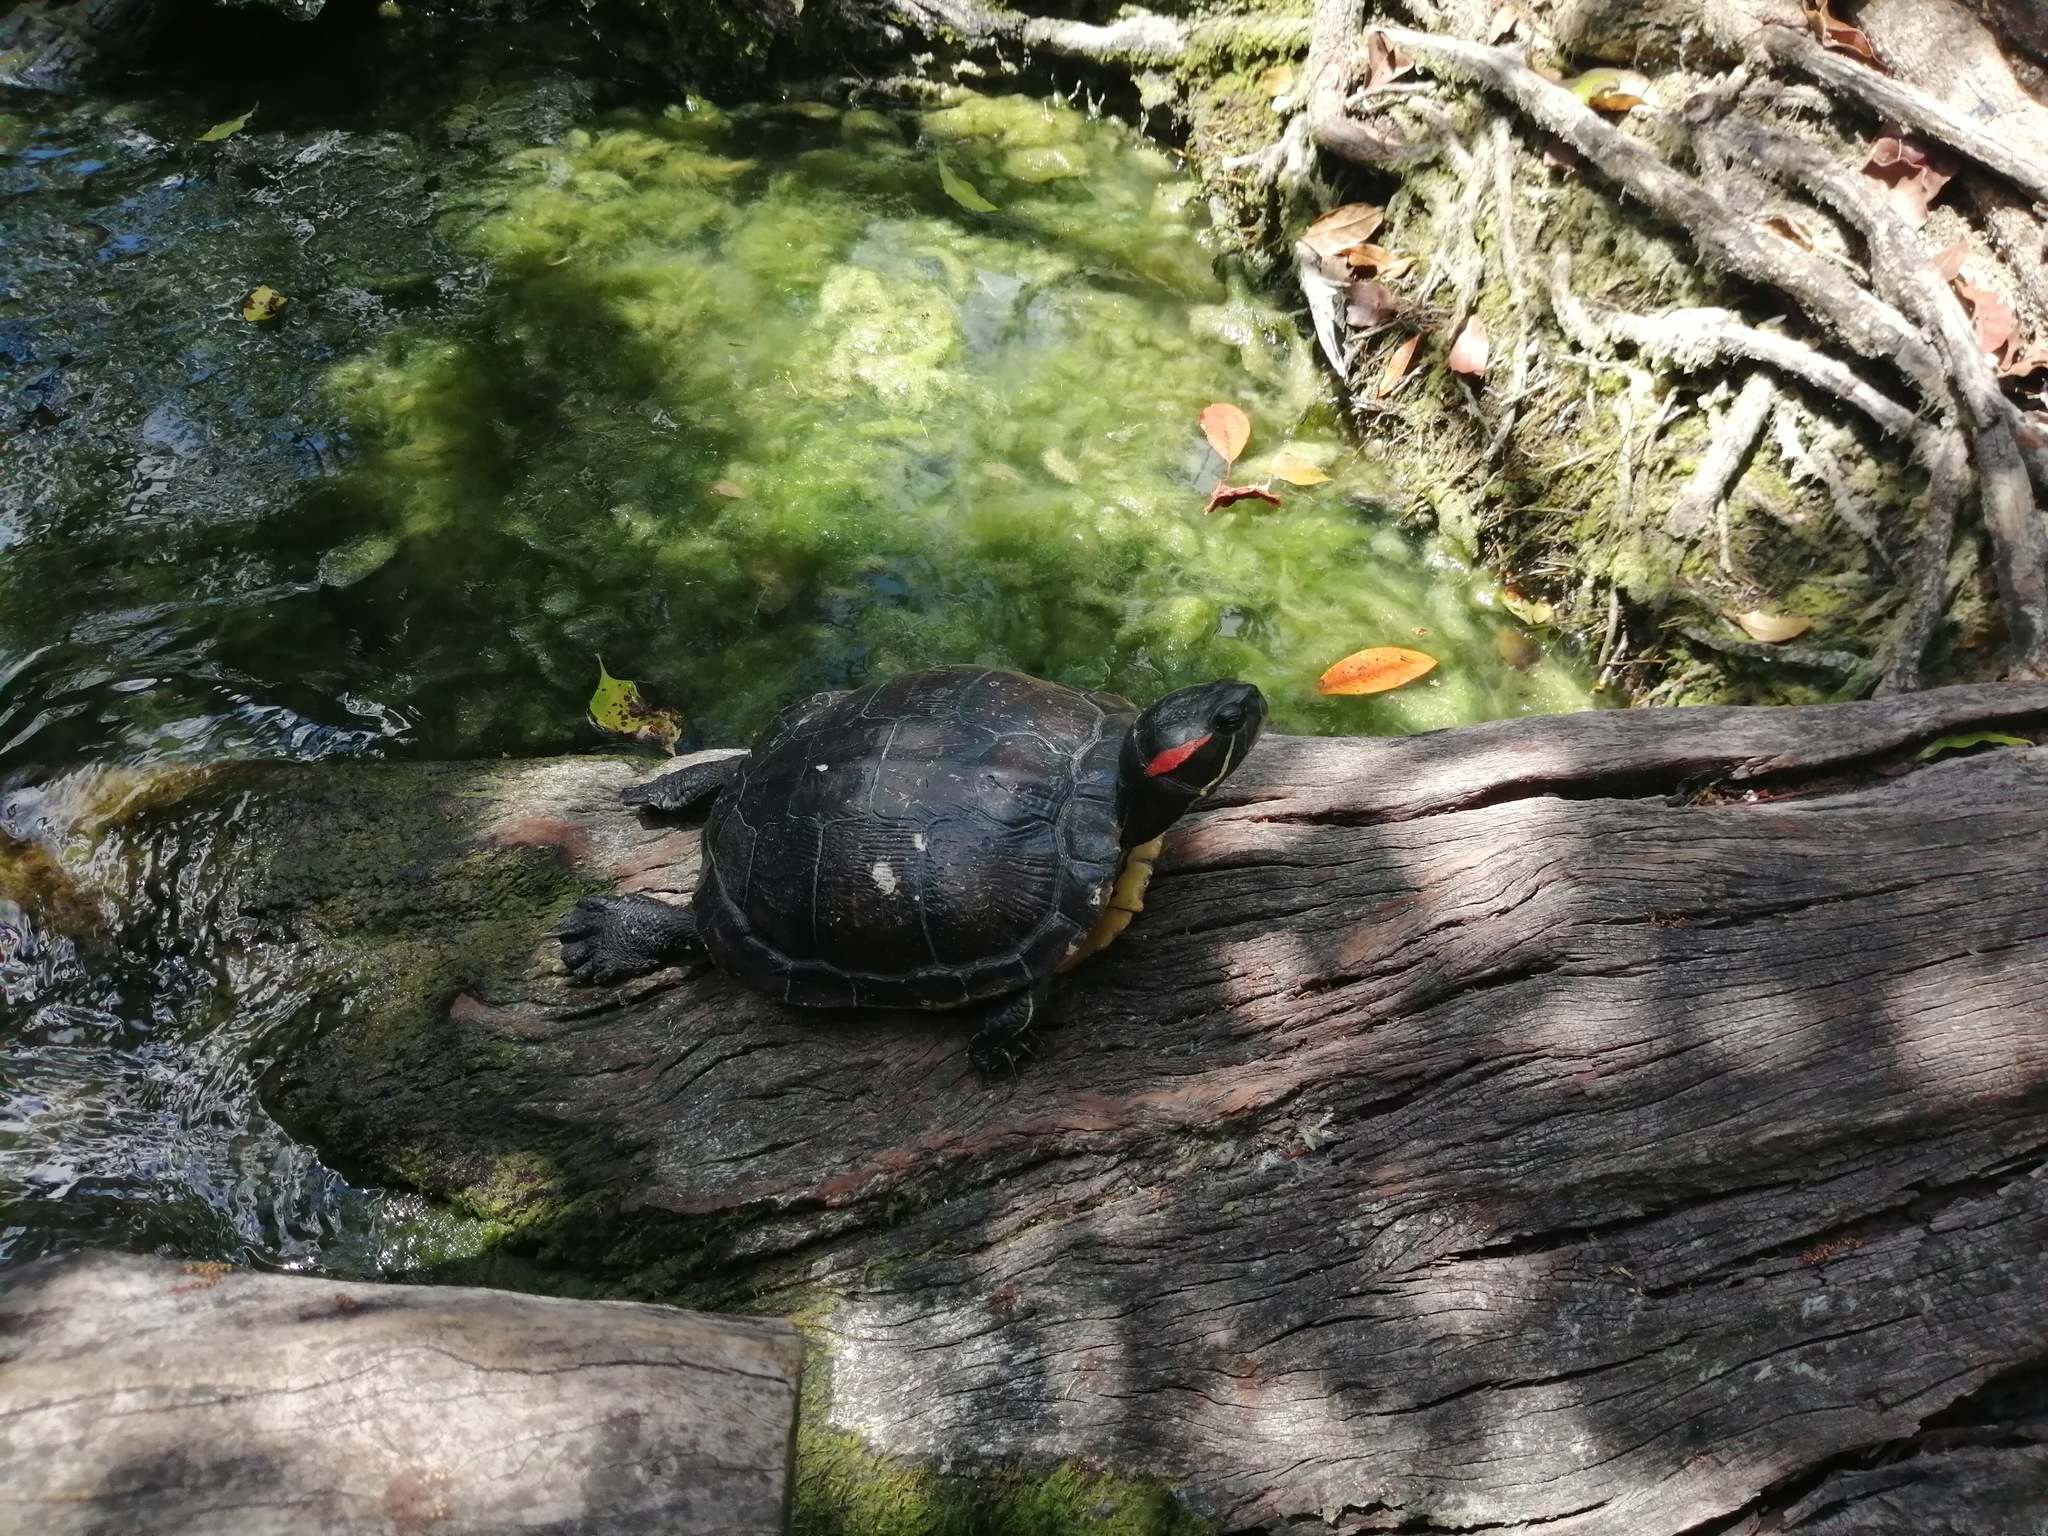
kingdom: Animalia
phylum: Chordata
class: Testudines
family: Emydidae
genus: Trachemys
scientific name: Trachemys scripta
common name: Slider
